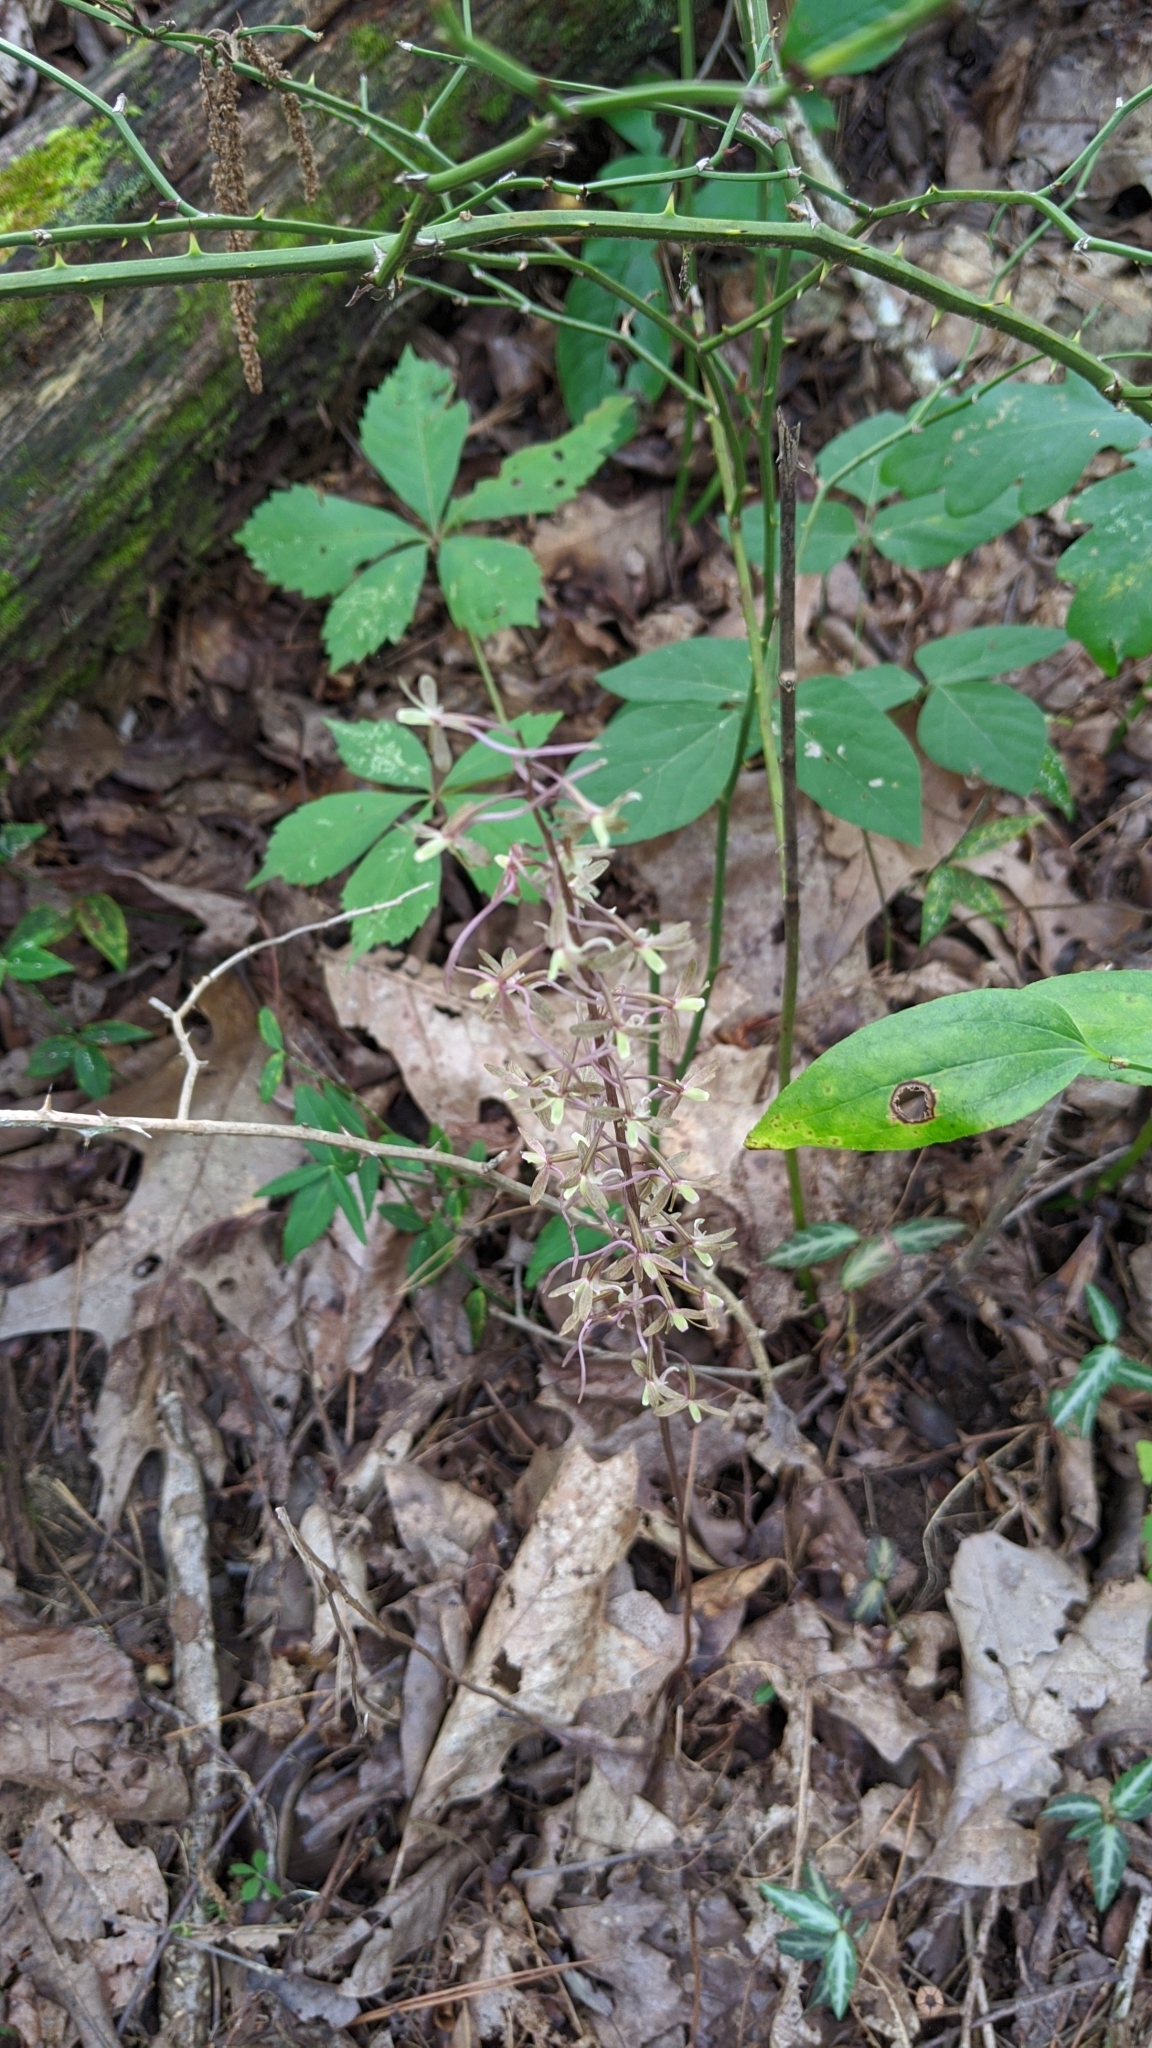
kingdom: Plantae
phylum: Tracheophyta
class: Liliopsida
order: Asparagales
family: Orchidaceae
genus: Tipularia
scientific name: Tipularia discolor
